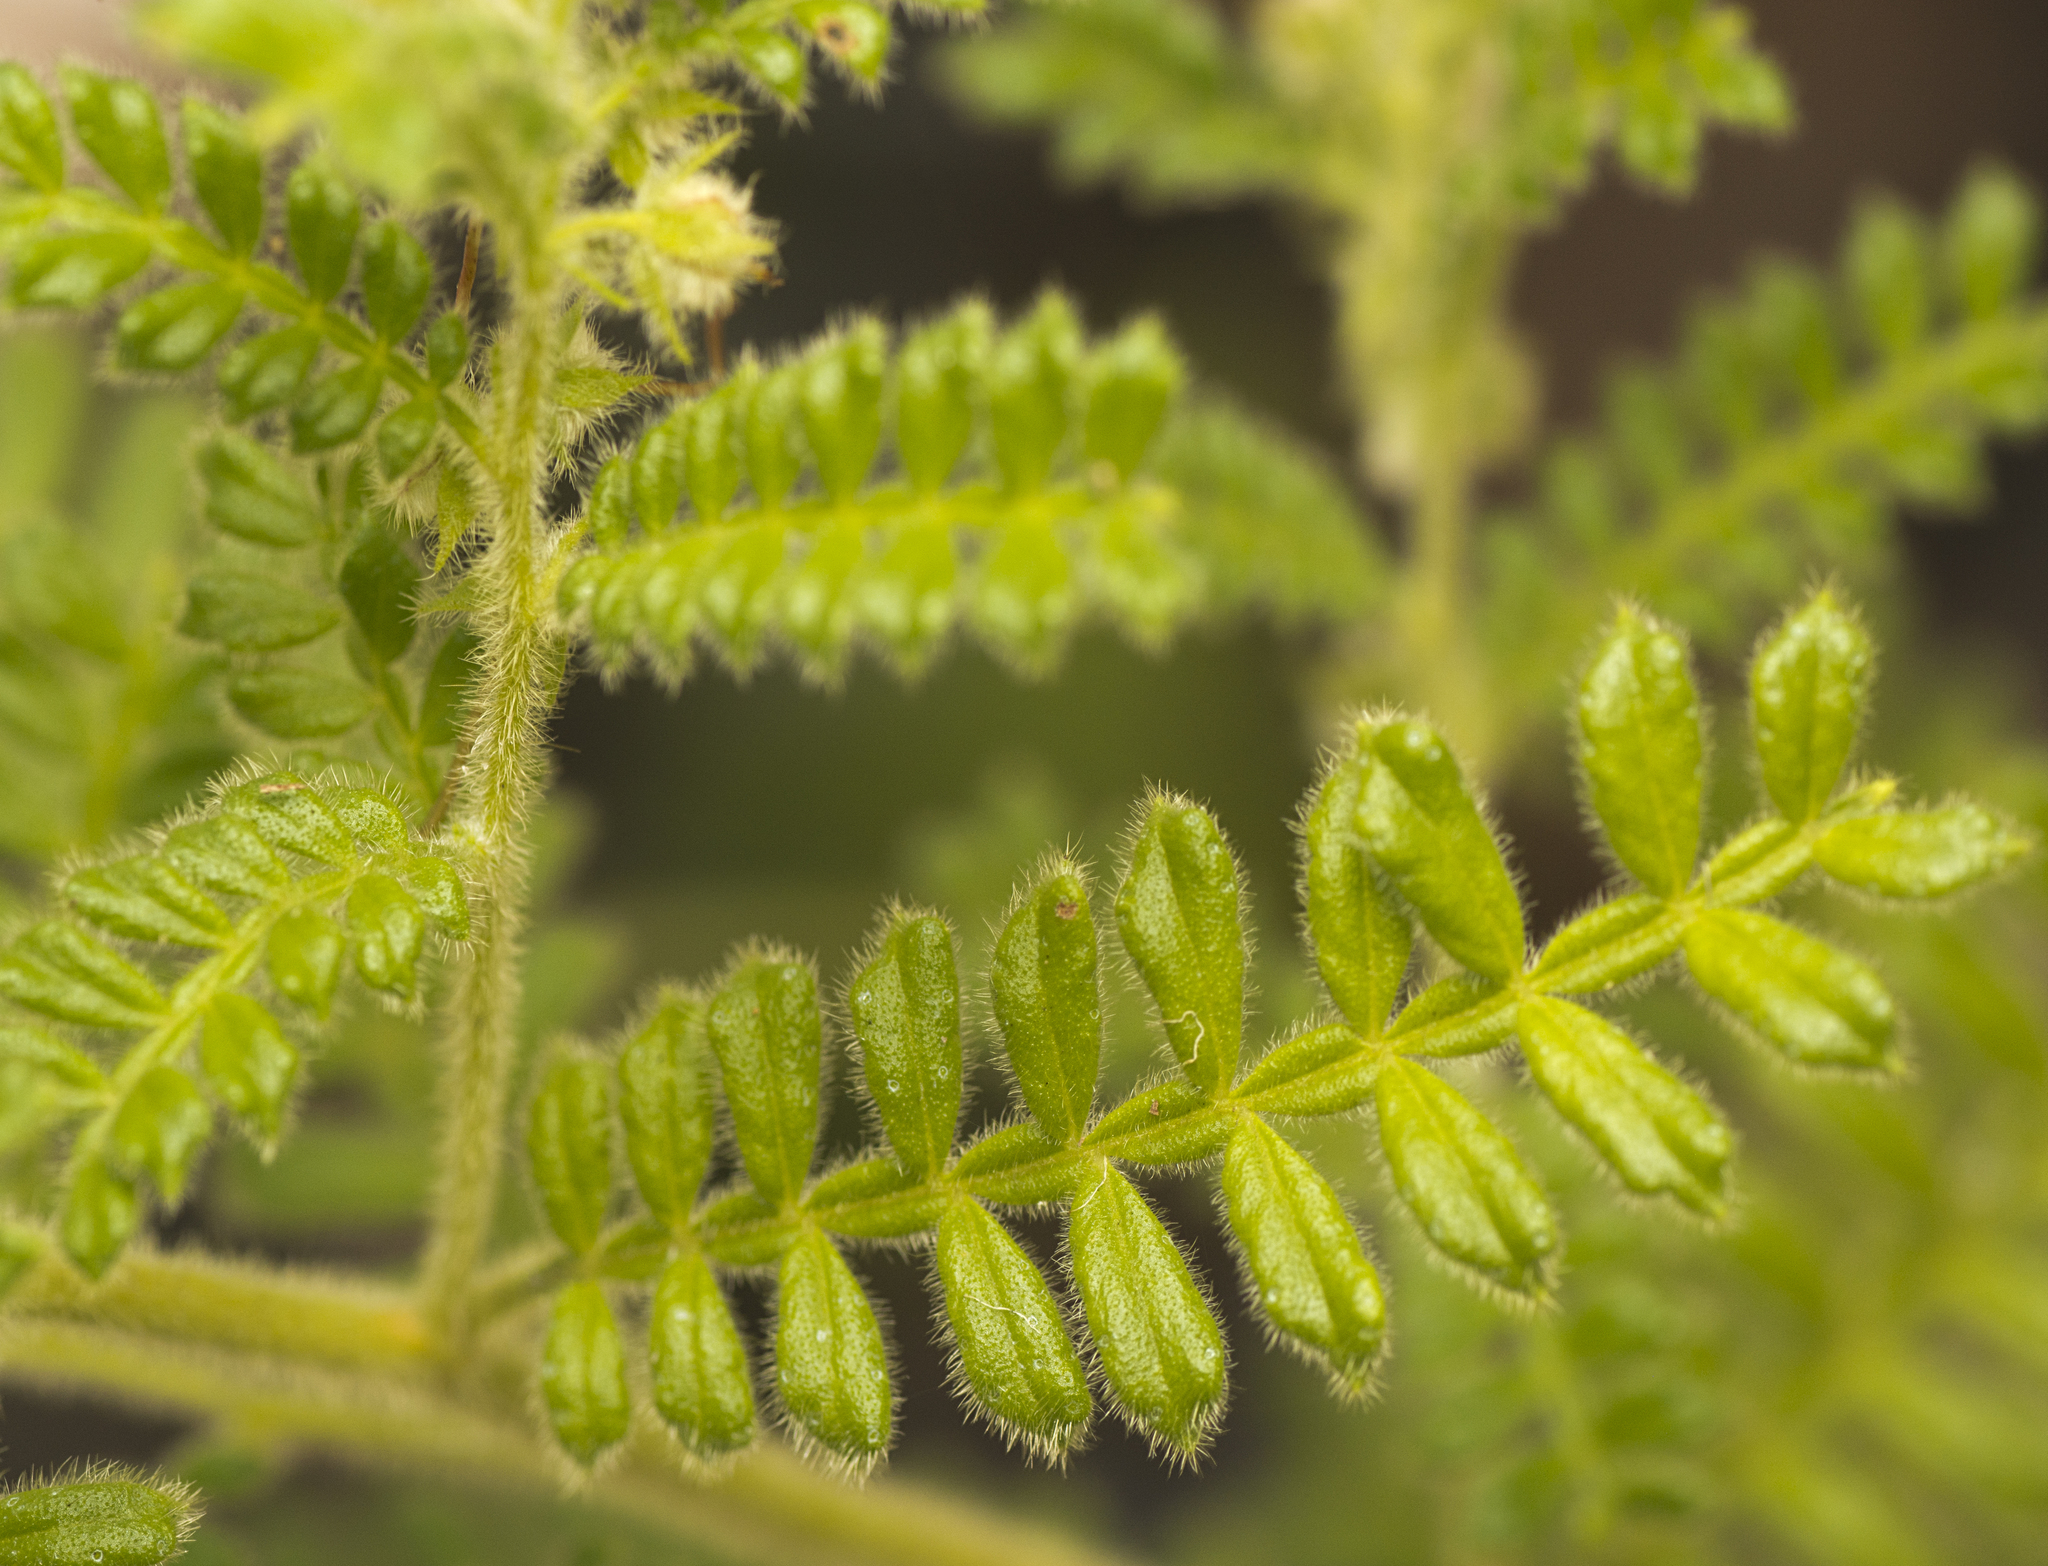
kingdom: Plantae
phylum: Tracheophyta
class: Magnoliopsida
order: Sapindales
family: Sapindaceae
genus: Dodonaea
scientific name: Dodonaea rupicola
